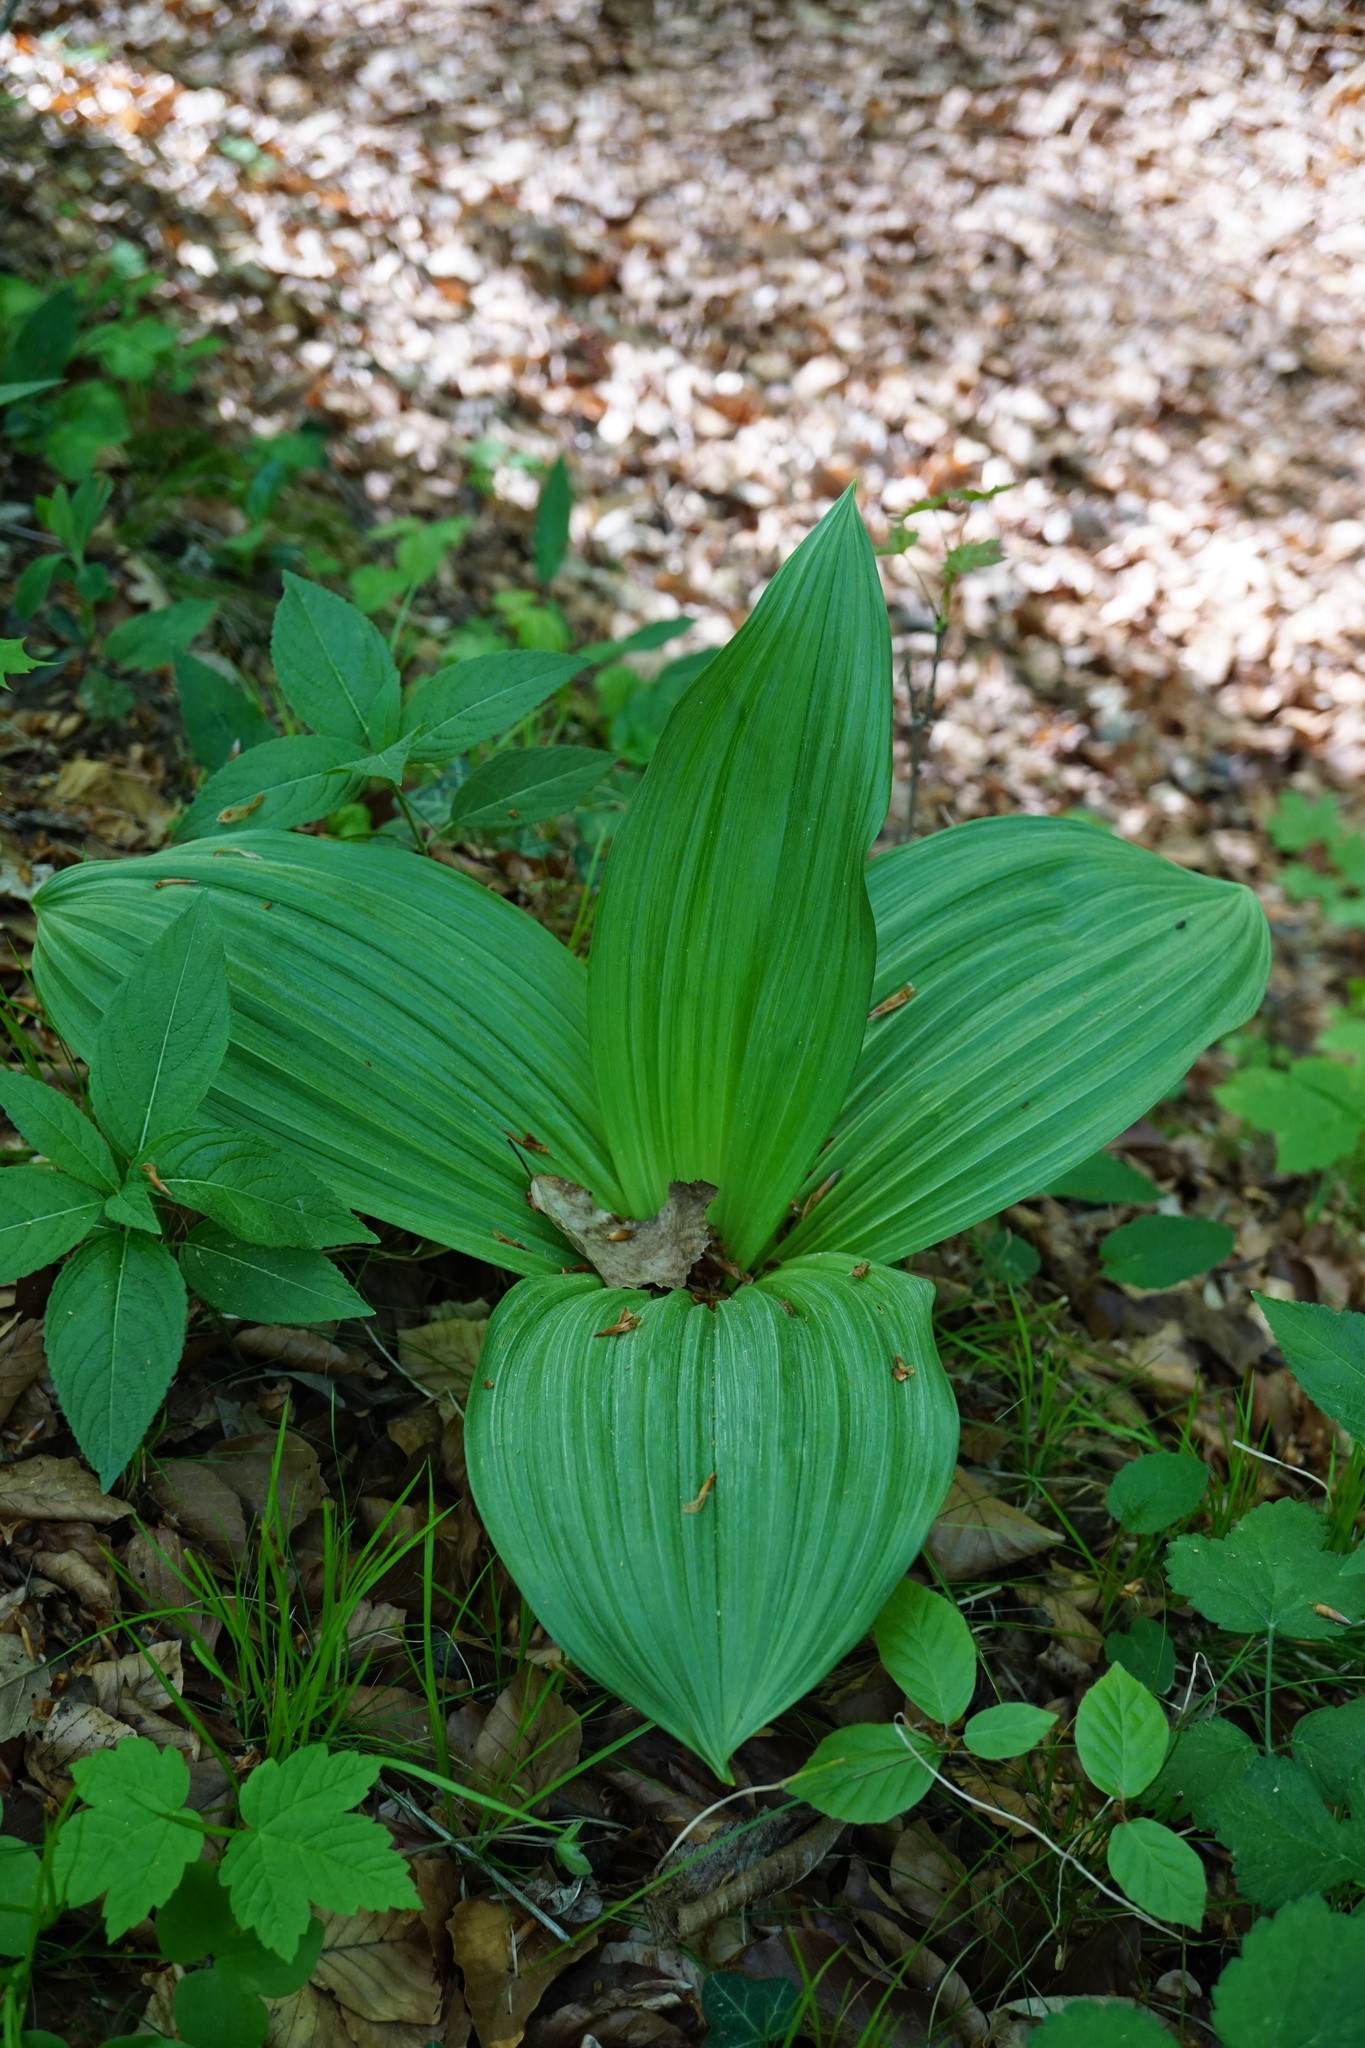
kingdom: Plantae
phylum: Tracheophyta
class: Liliopsida
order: Liliales
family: Melanthiaceae
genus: Veratrum
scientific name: Veratrum nigrum
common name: Black veratrum
